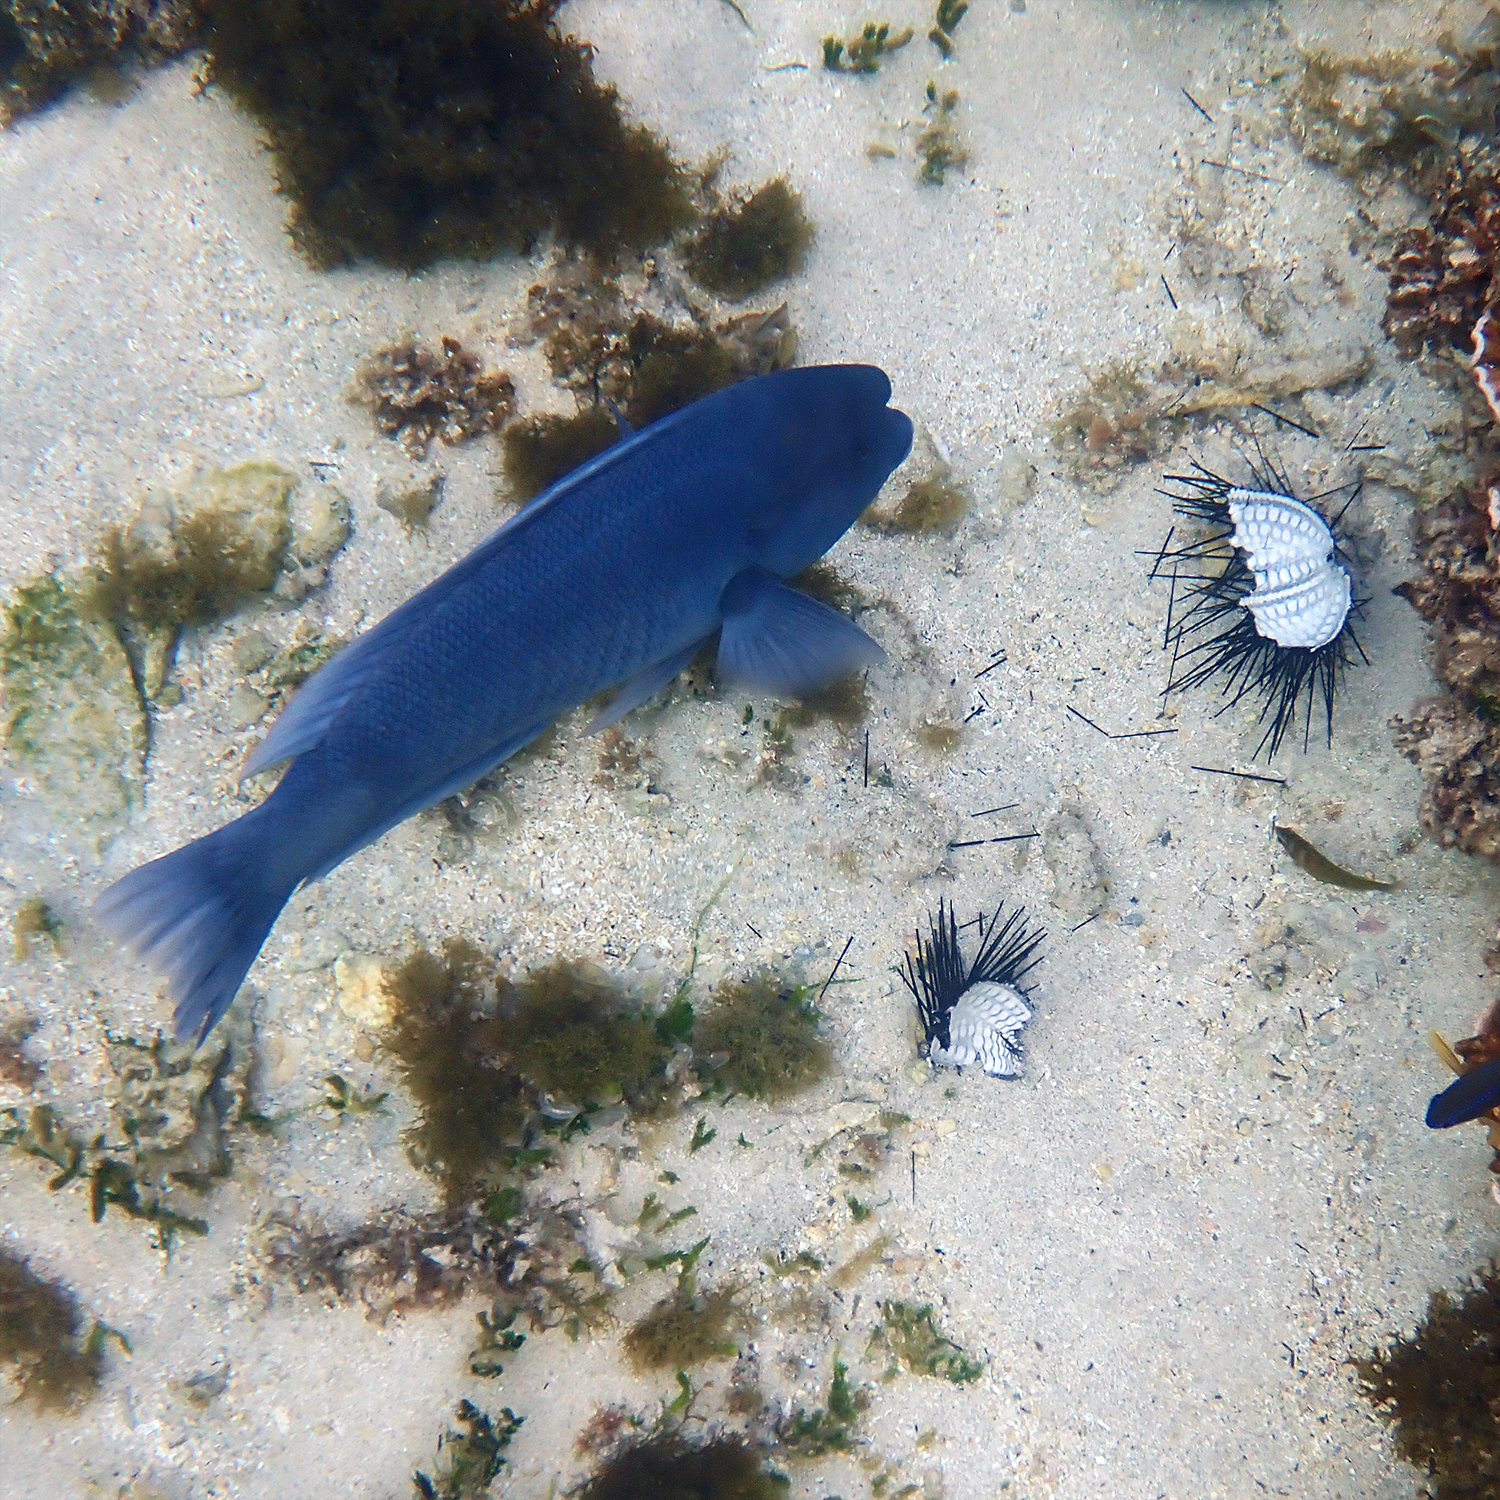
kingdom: Animalia
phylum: Chordata
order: Perciformes
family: Labridae
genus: Coris
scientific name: Coris bulbifrons
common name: Doubleheader
